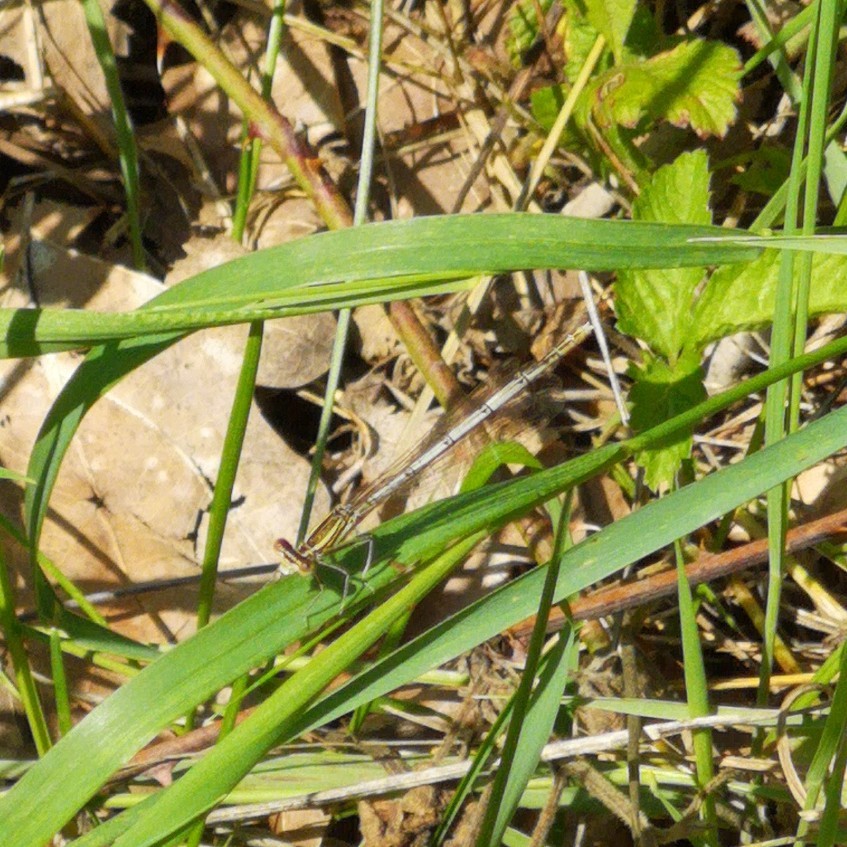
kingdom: Animalia
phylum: Arthropoda
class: Insecta
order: Odonata
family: Platycnemididae
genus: Platycnemis
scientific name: Platycnemis pennipes
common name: White-legged damselfly
